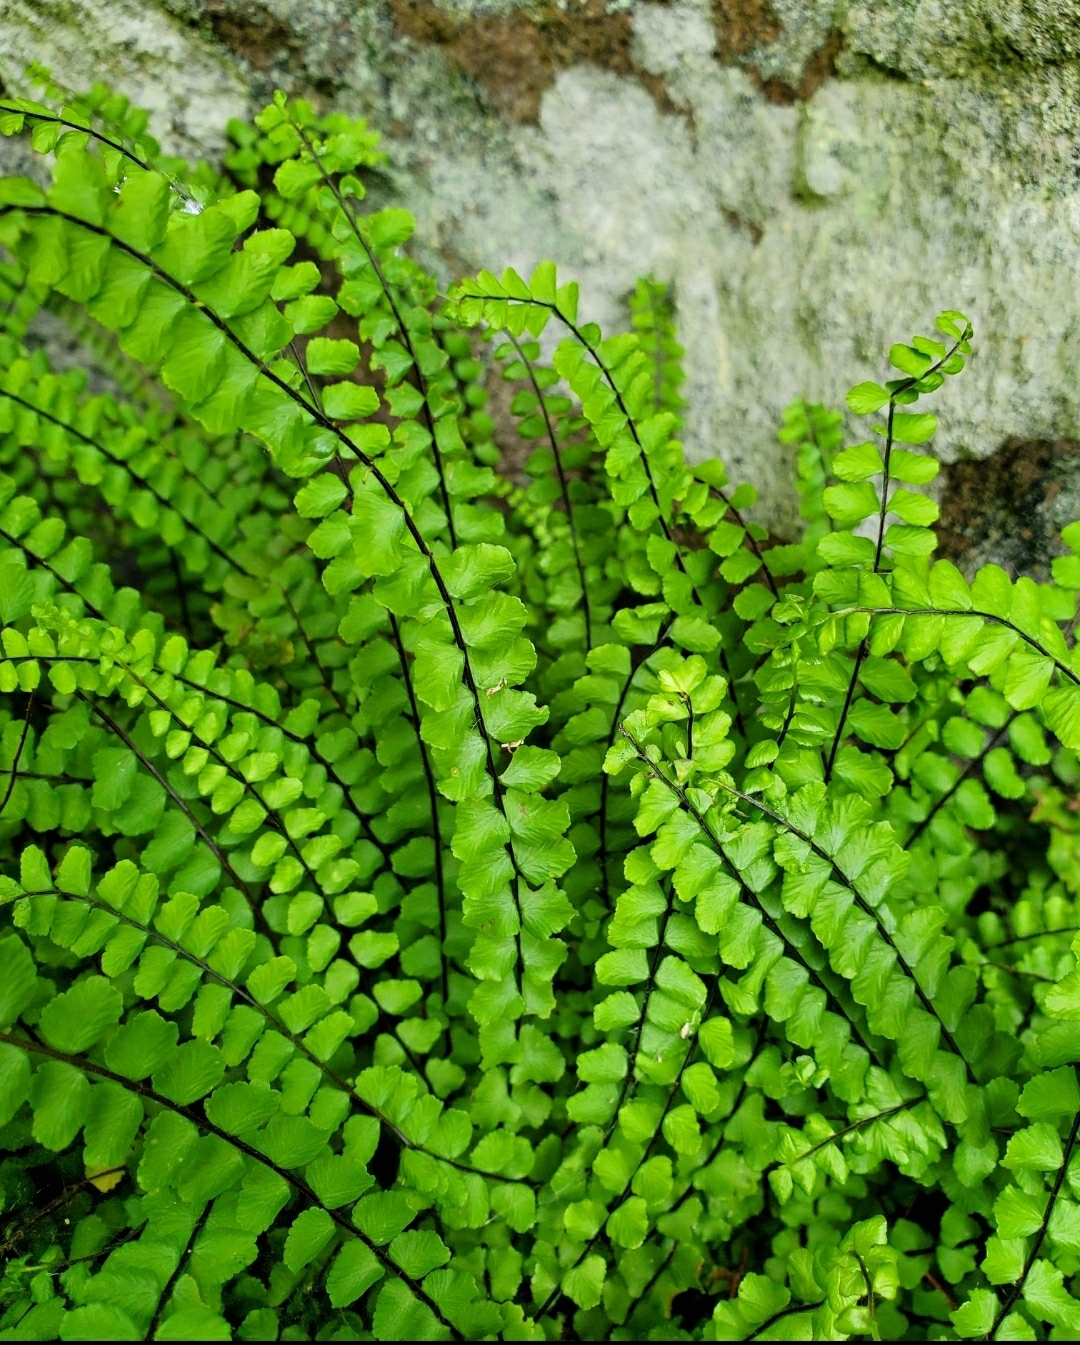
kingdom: Plantae
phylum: Tracheophyta
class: Polypodiopsida
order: Polypodiales
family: Aspleniaceae
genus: Asplenium
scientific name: Asplenium trichomanes
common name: Maidenhair spleenwort
